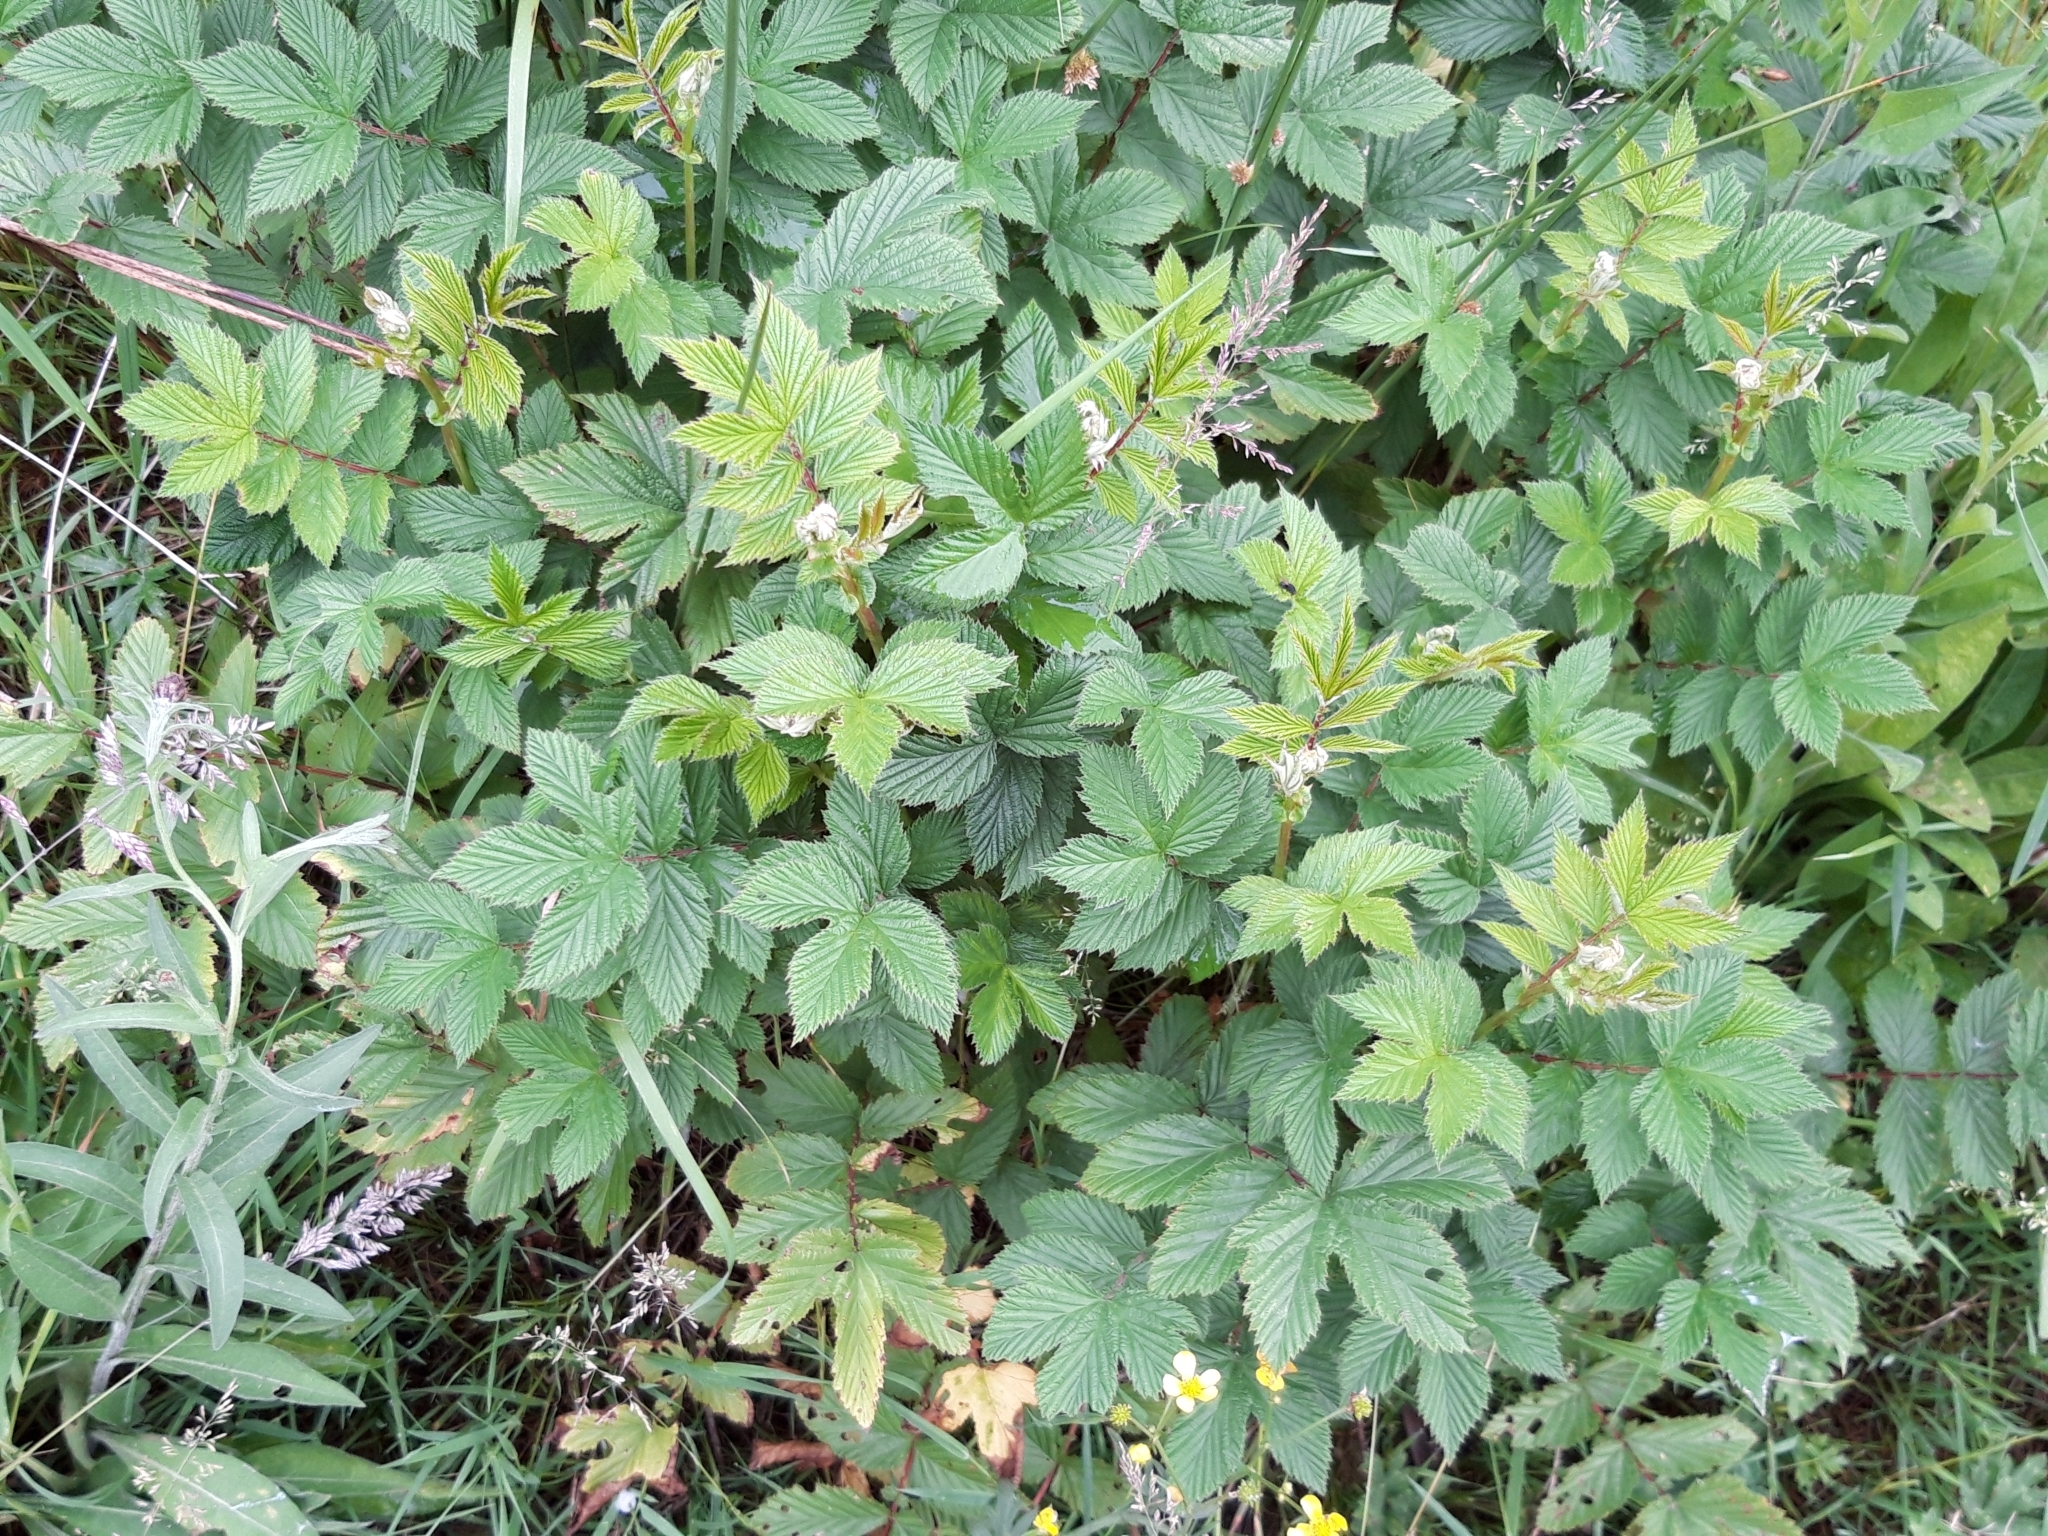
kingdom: Plantae
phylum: Tracheophyta
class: Magnoliopsida
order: Rosales
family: Rosaceae
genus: Filipendula
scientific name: Filipendula ulmaria
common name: Meadowsweet
